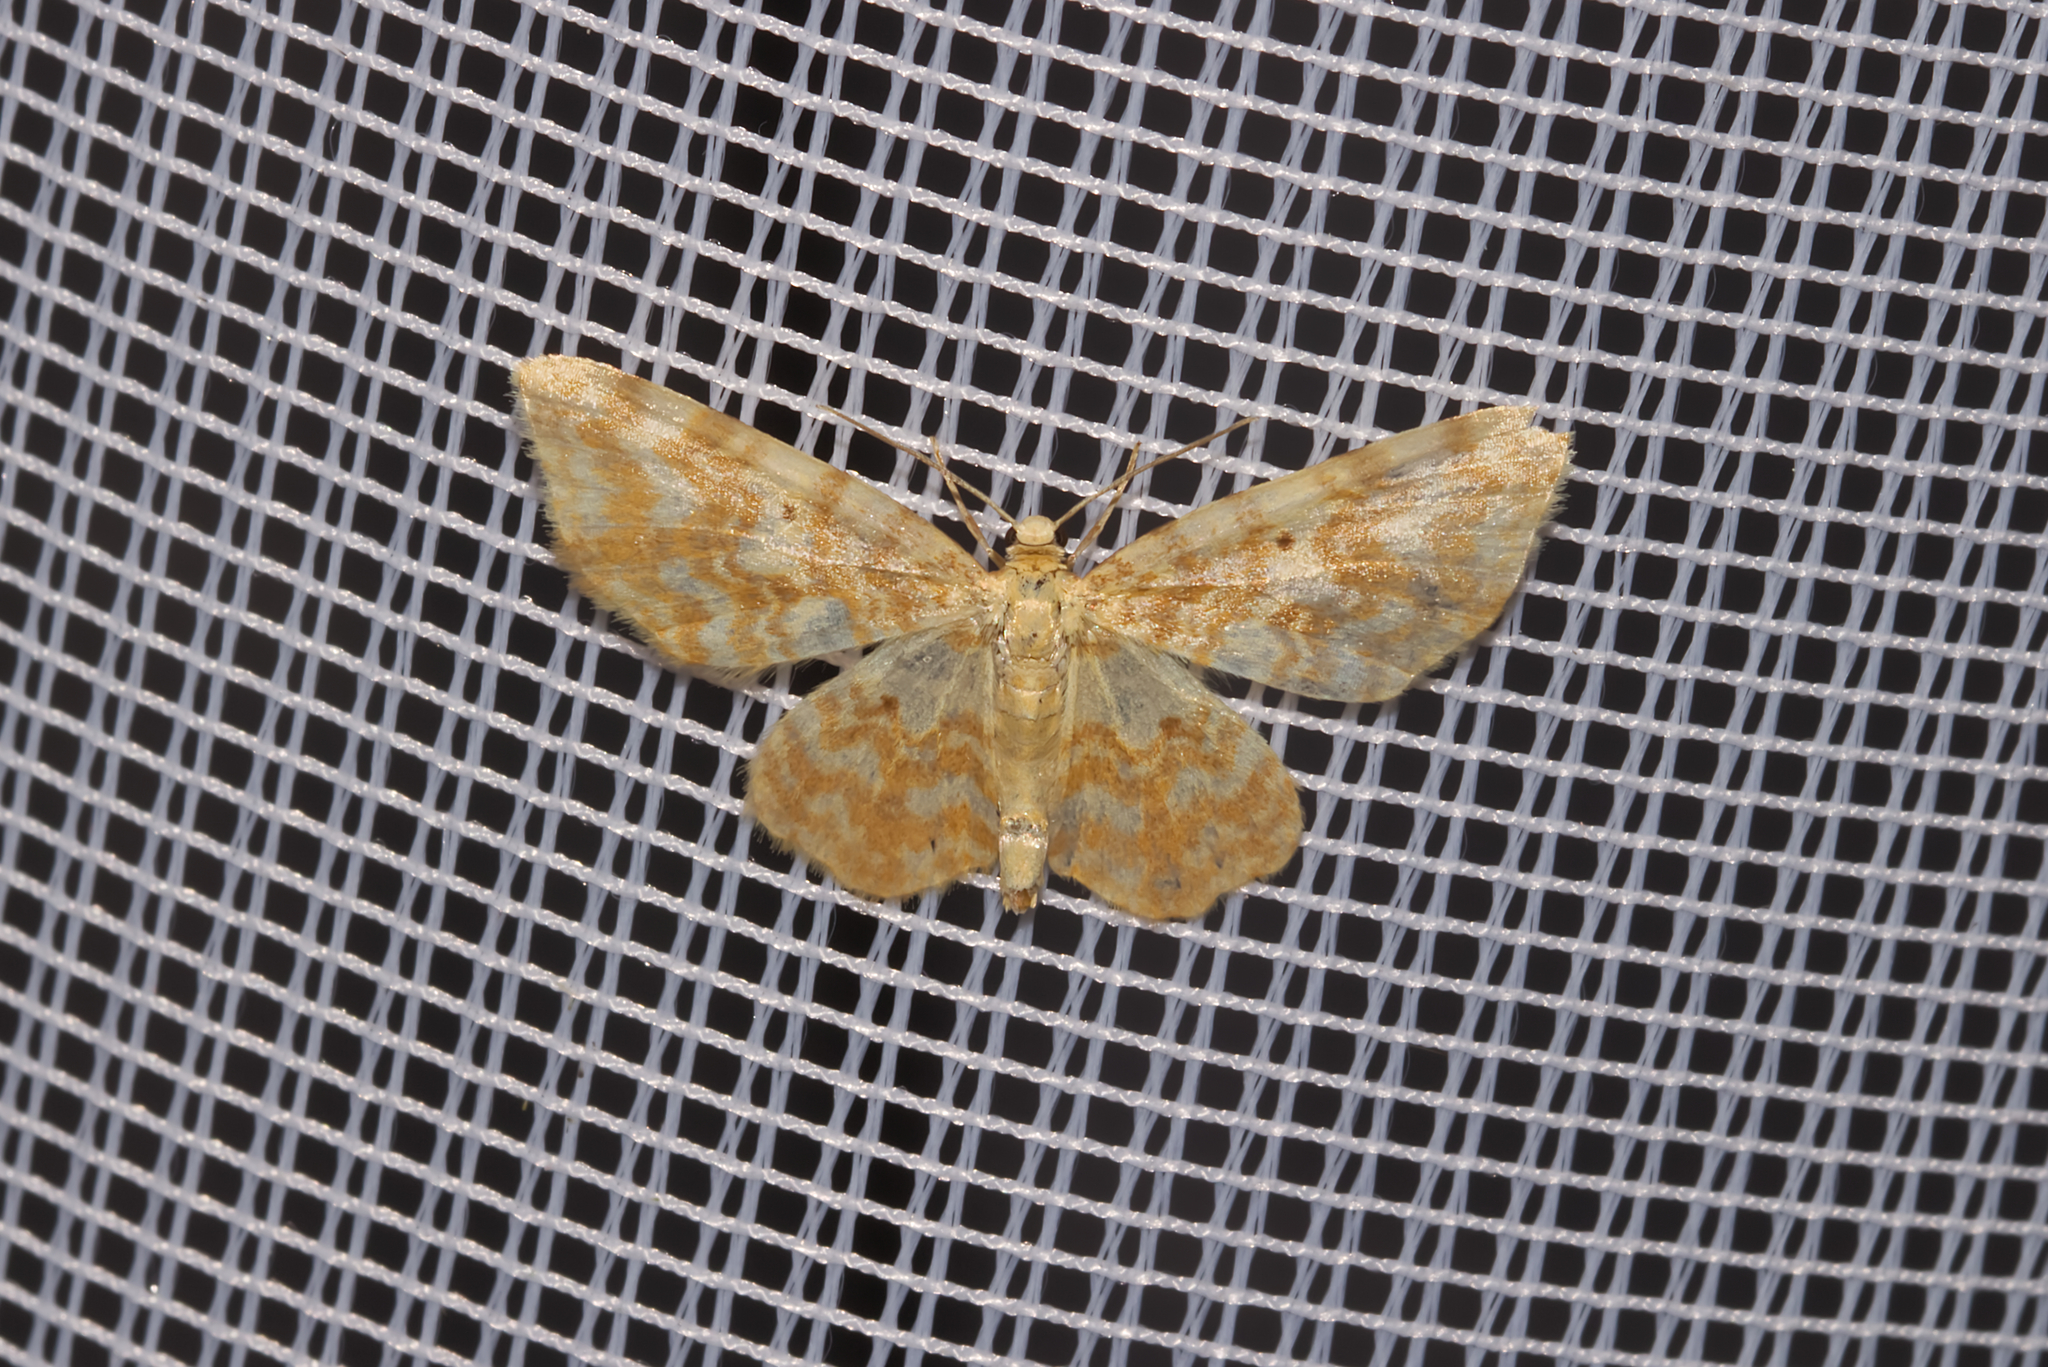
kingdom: Animalia
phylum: Arthropoda
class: Insecta
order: Lepidoptera
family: Geometridae
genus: Hydrelia
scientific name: Hydrelia flammeolaria
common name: Small yellow wave
